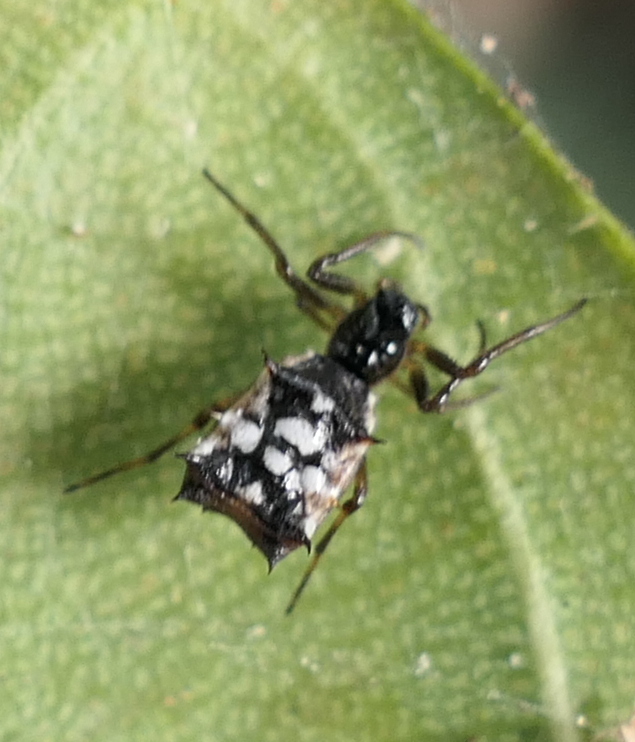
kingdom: Animalia
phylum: Arthropoda
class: Arachnida
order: Araneae
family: Araneidae
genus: Micrathena
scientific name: Micrathena picta
